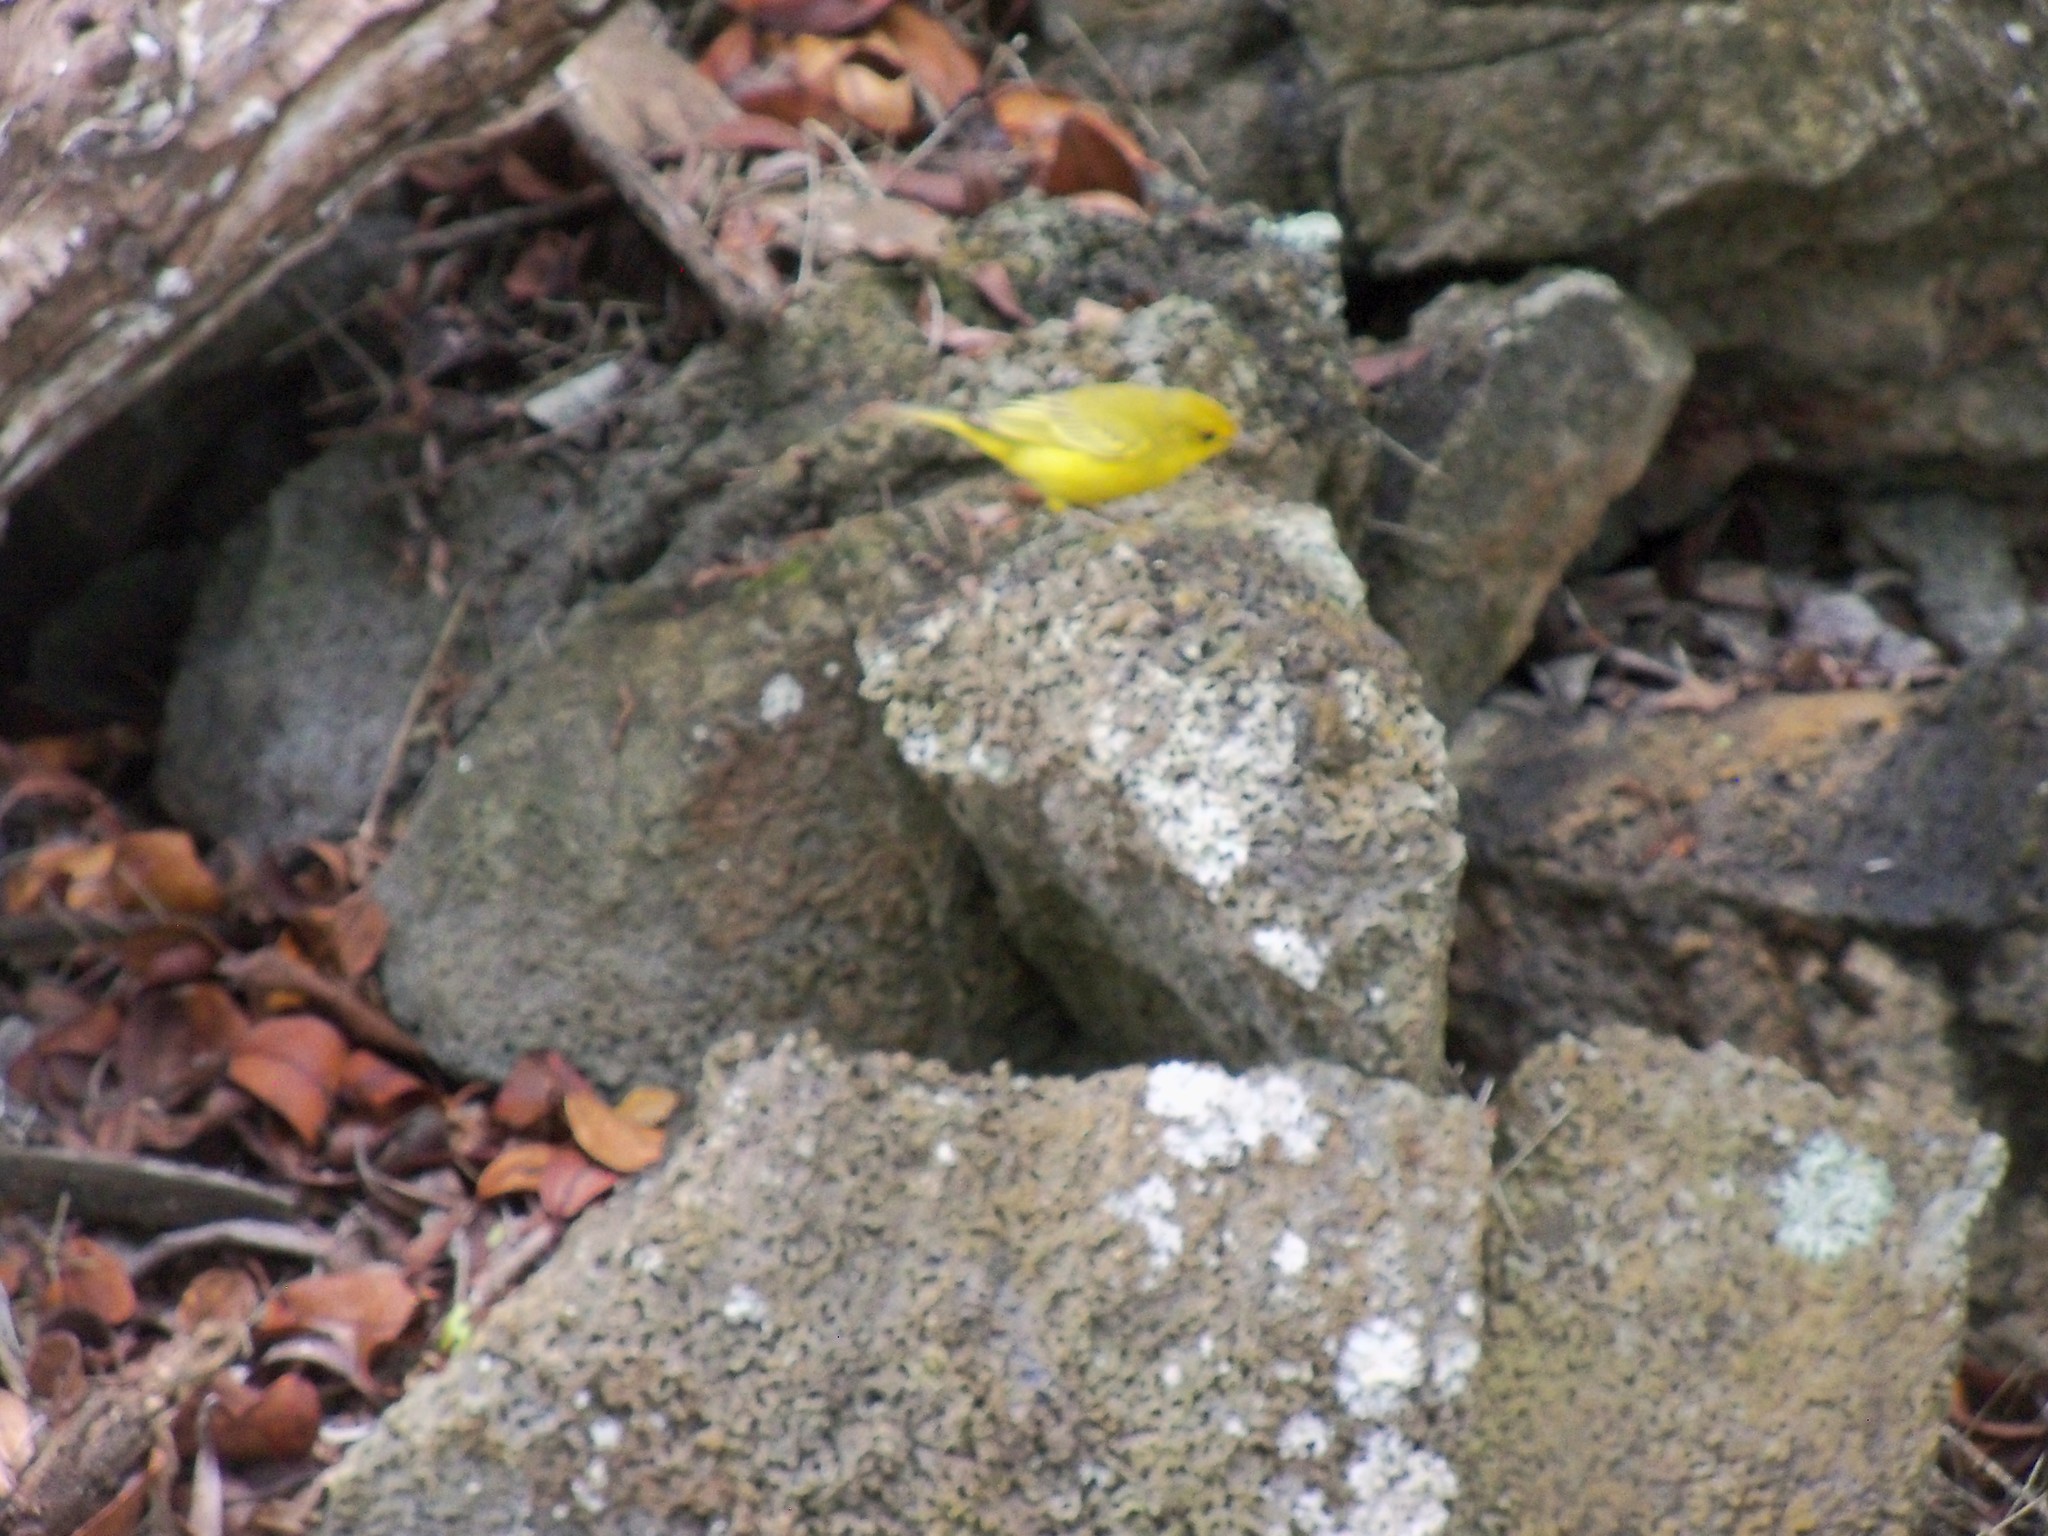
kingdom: Animalia
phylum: Chordata
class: Aves
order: Passeriformes
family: Parulidae
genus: Setophaga
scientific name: Setophaga petechia
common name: Yellow warbler
